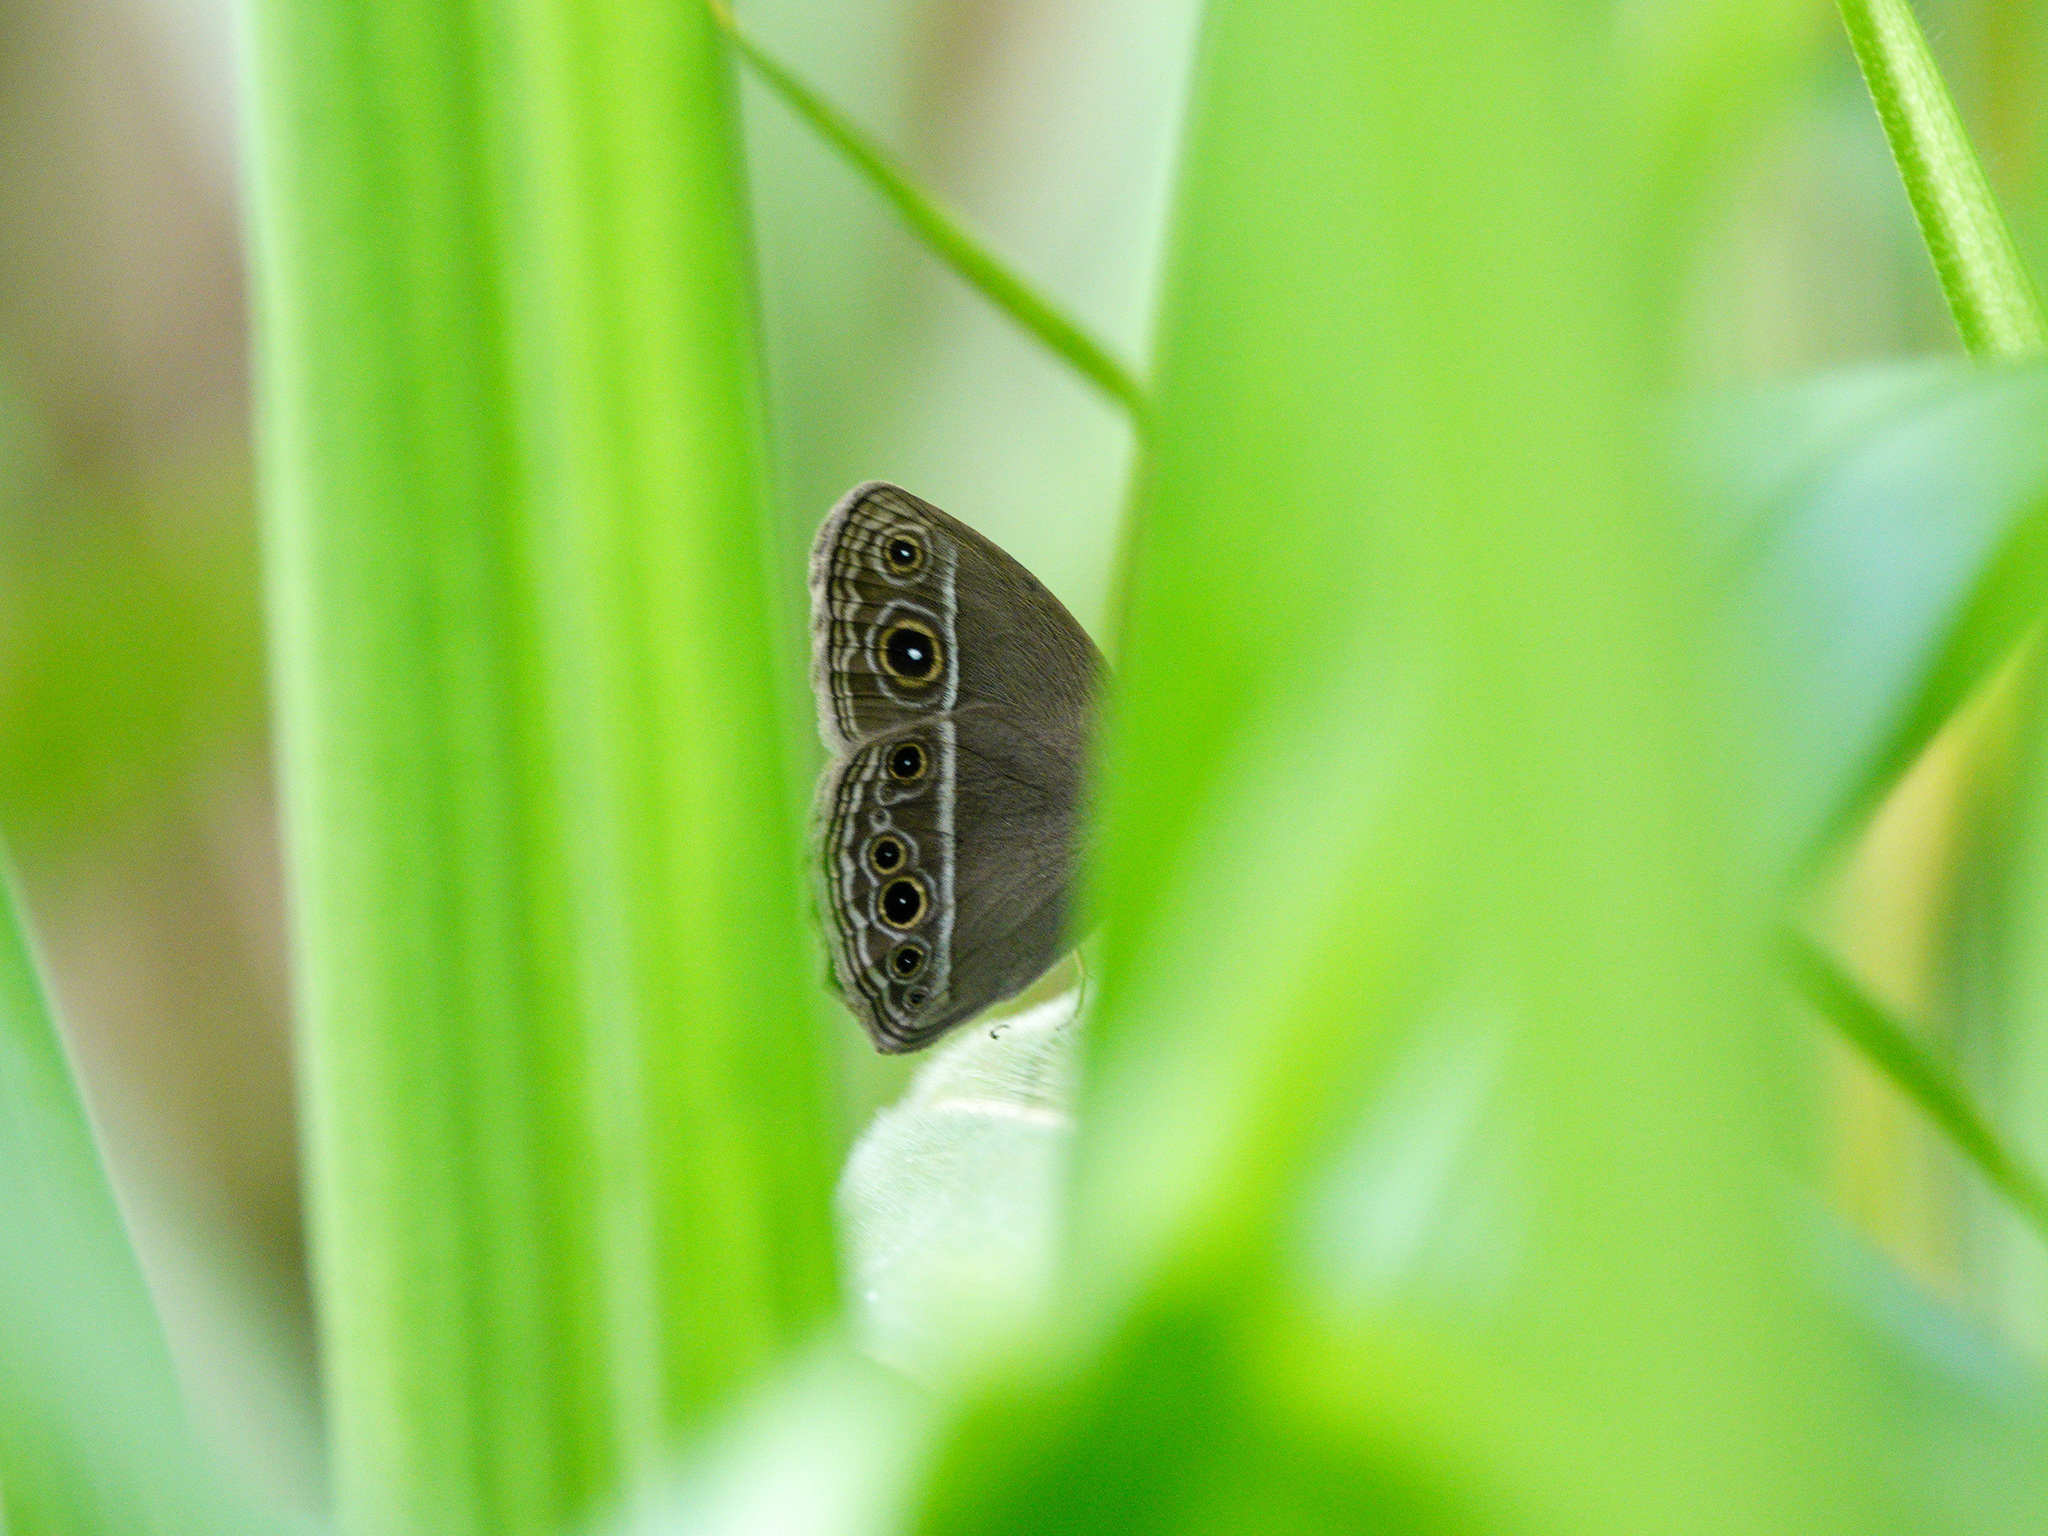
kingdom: Animalia
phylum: Arthropoda
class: Insecta
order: Lepidoptera
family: Nymphalidae
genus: Mycalesis
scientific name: Mycalesis mineus
